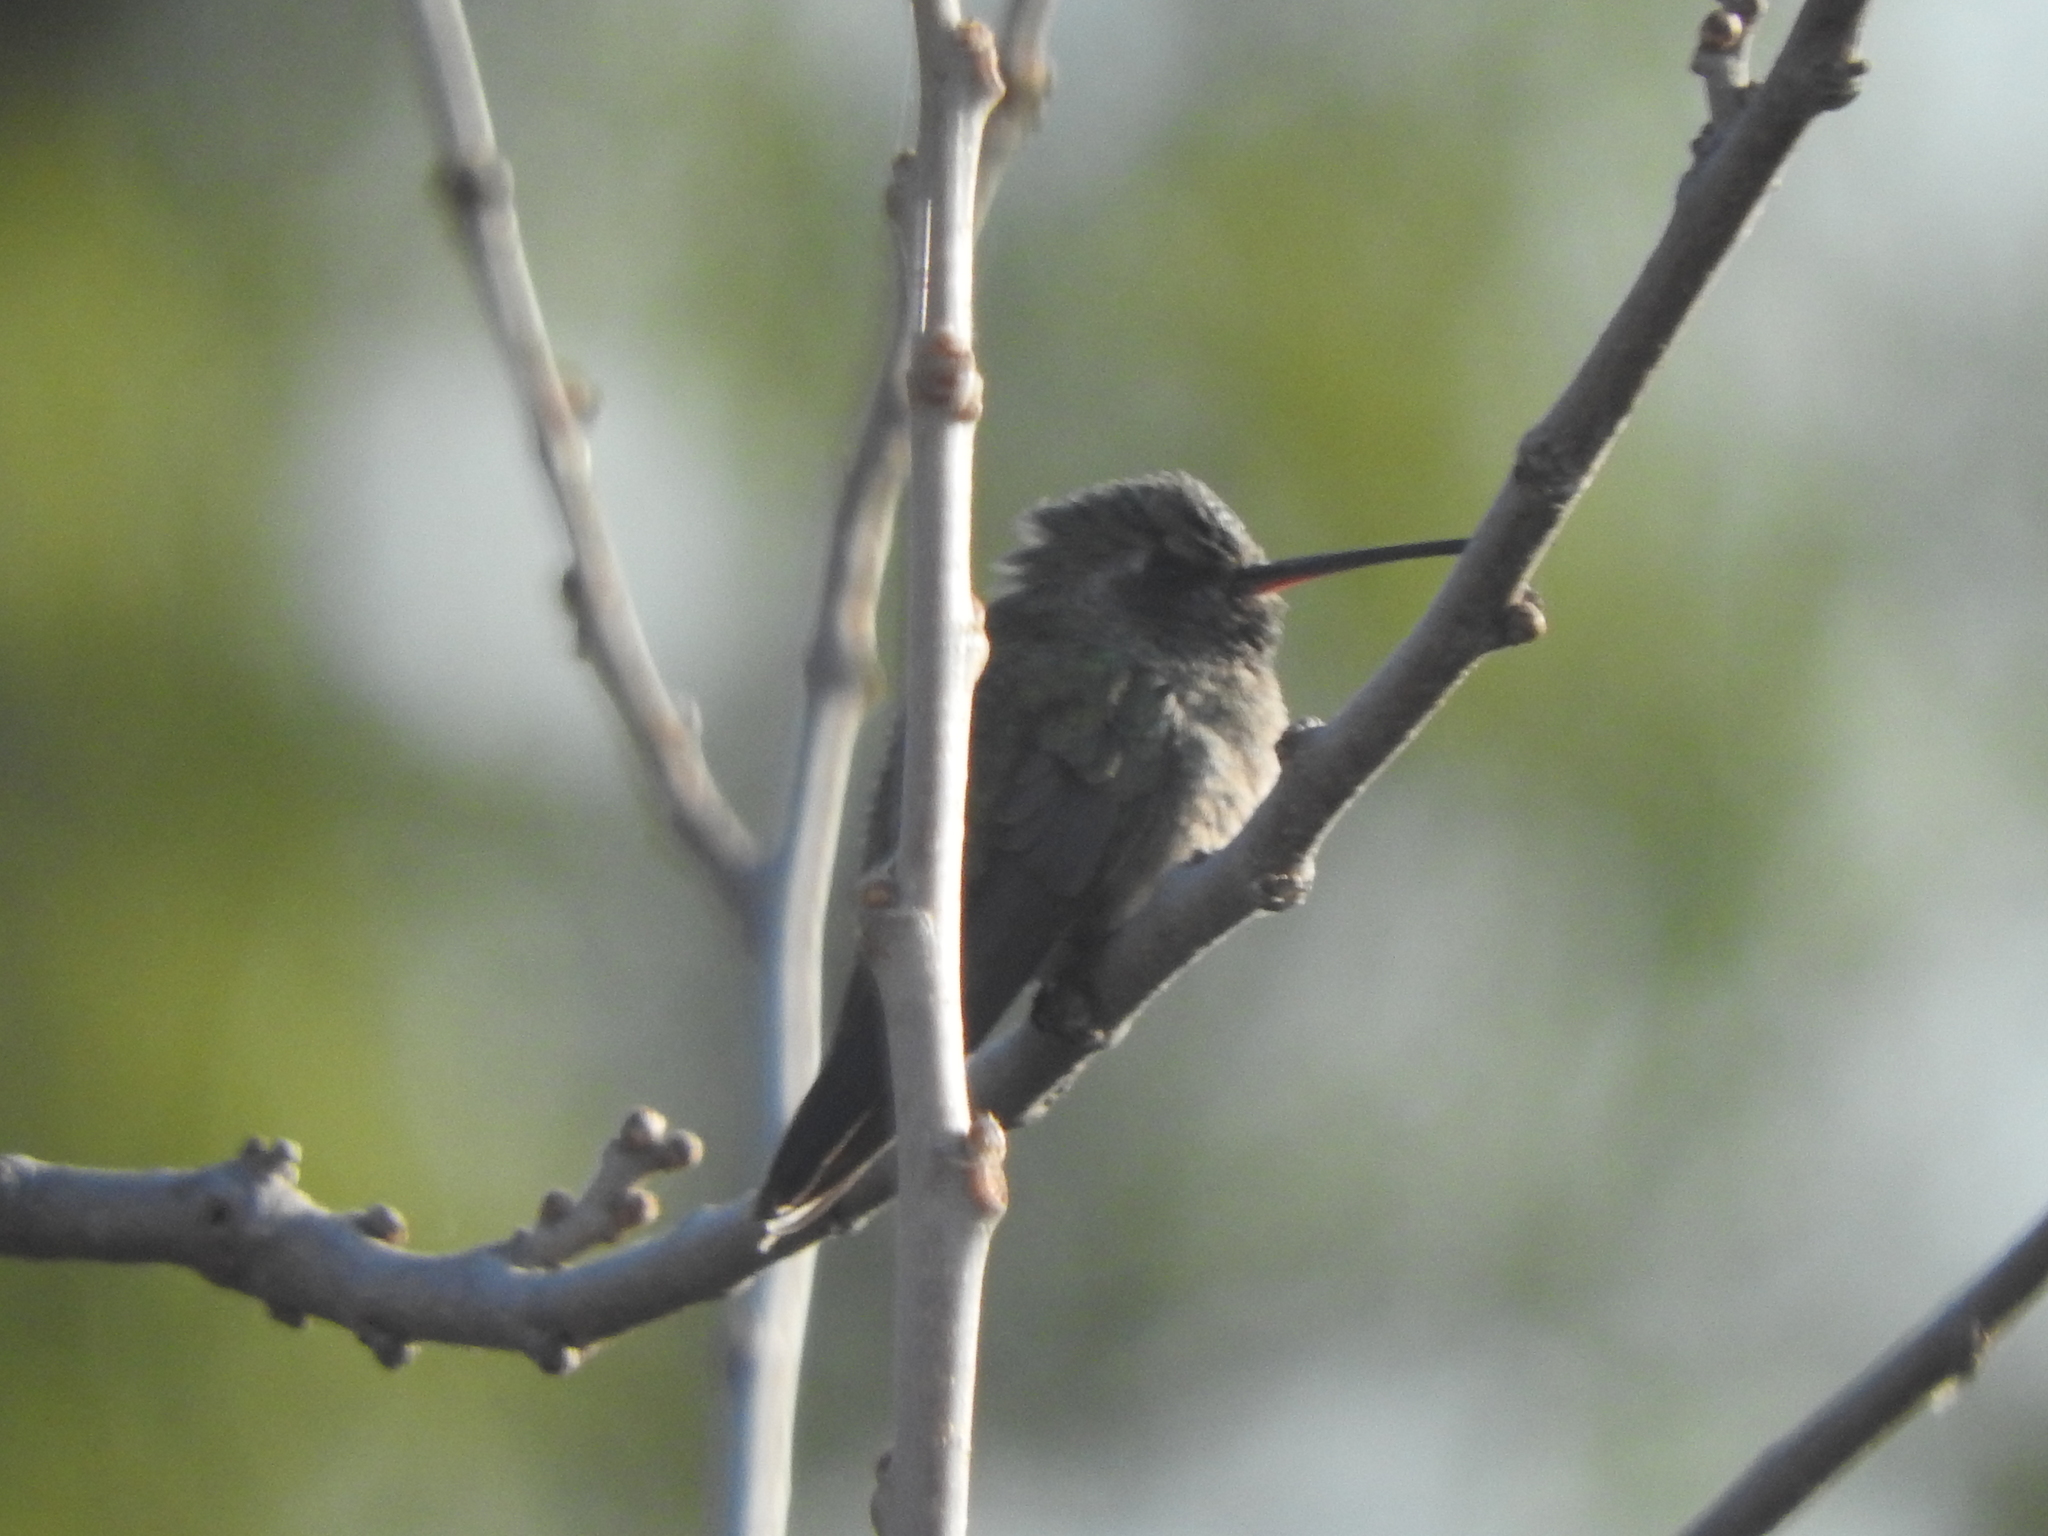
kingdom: Animalia
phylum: Chordata
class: Aves
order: Apodiformes
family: Trochilidae
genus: Cynanthus
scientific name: Cynanthus latirostris
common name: Broad-billed hummingbird
